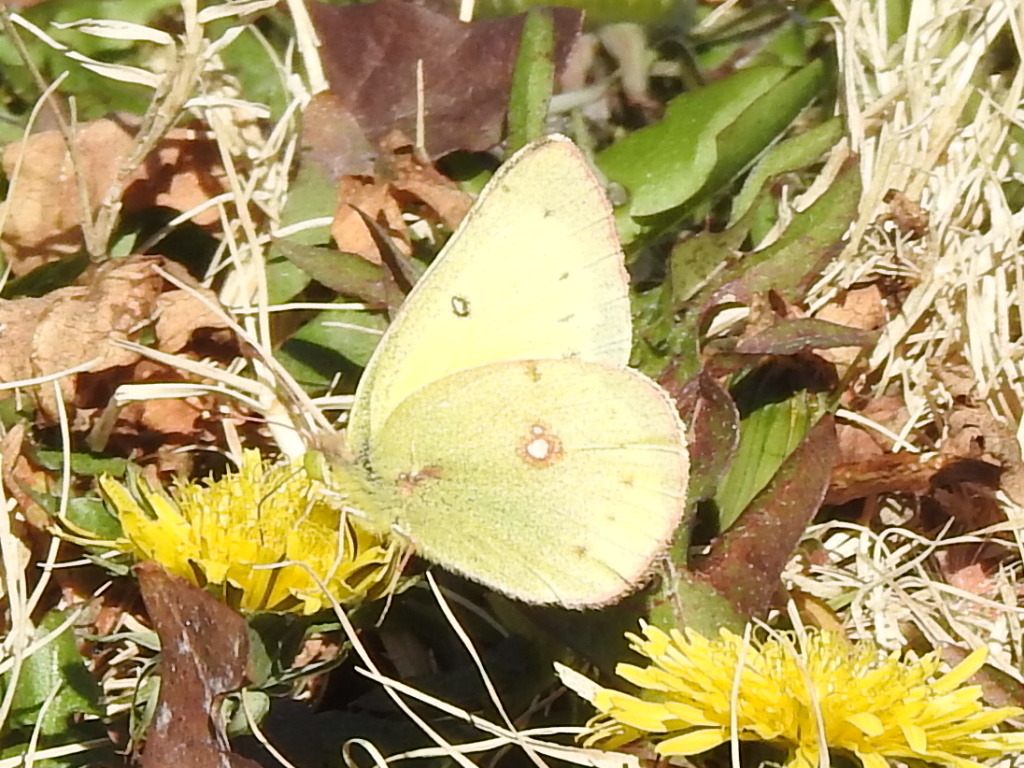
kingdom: Animalia
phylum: Arthropoda
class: Insecta
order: Lepidoptera
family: Pieridae
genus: Colias
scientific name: Colias eurytheme
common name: Alfalfa butterfly
